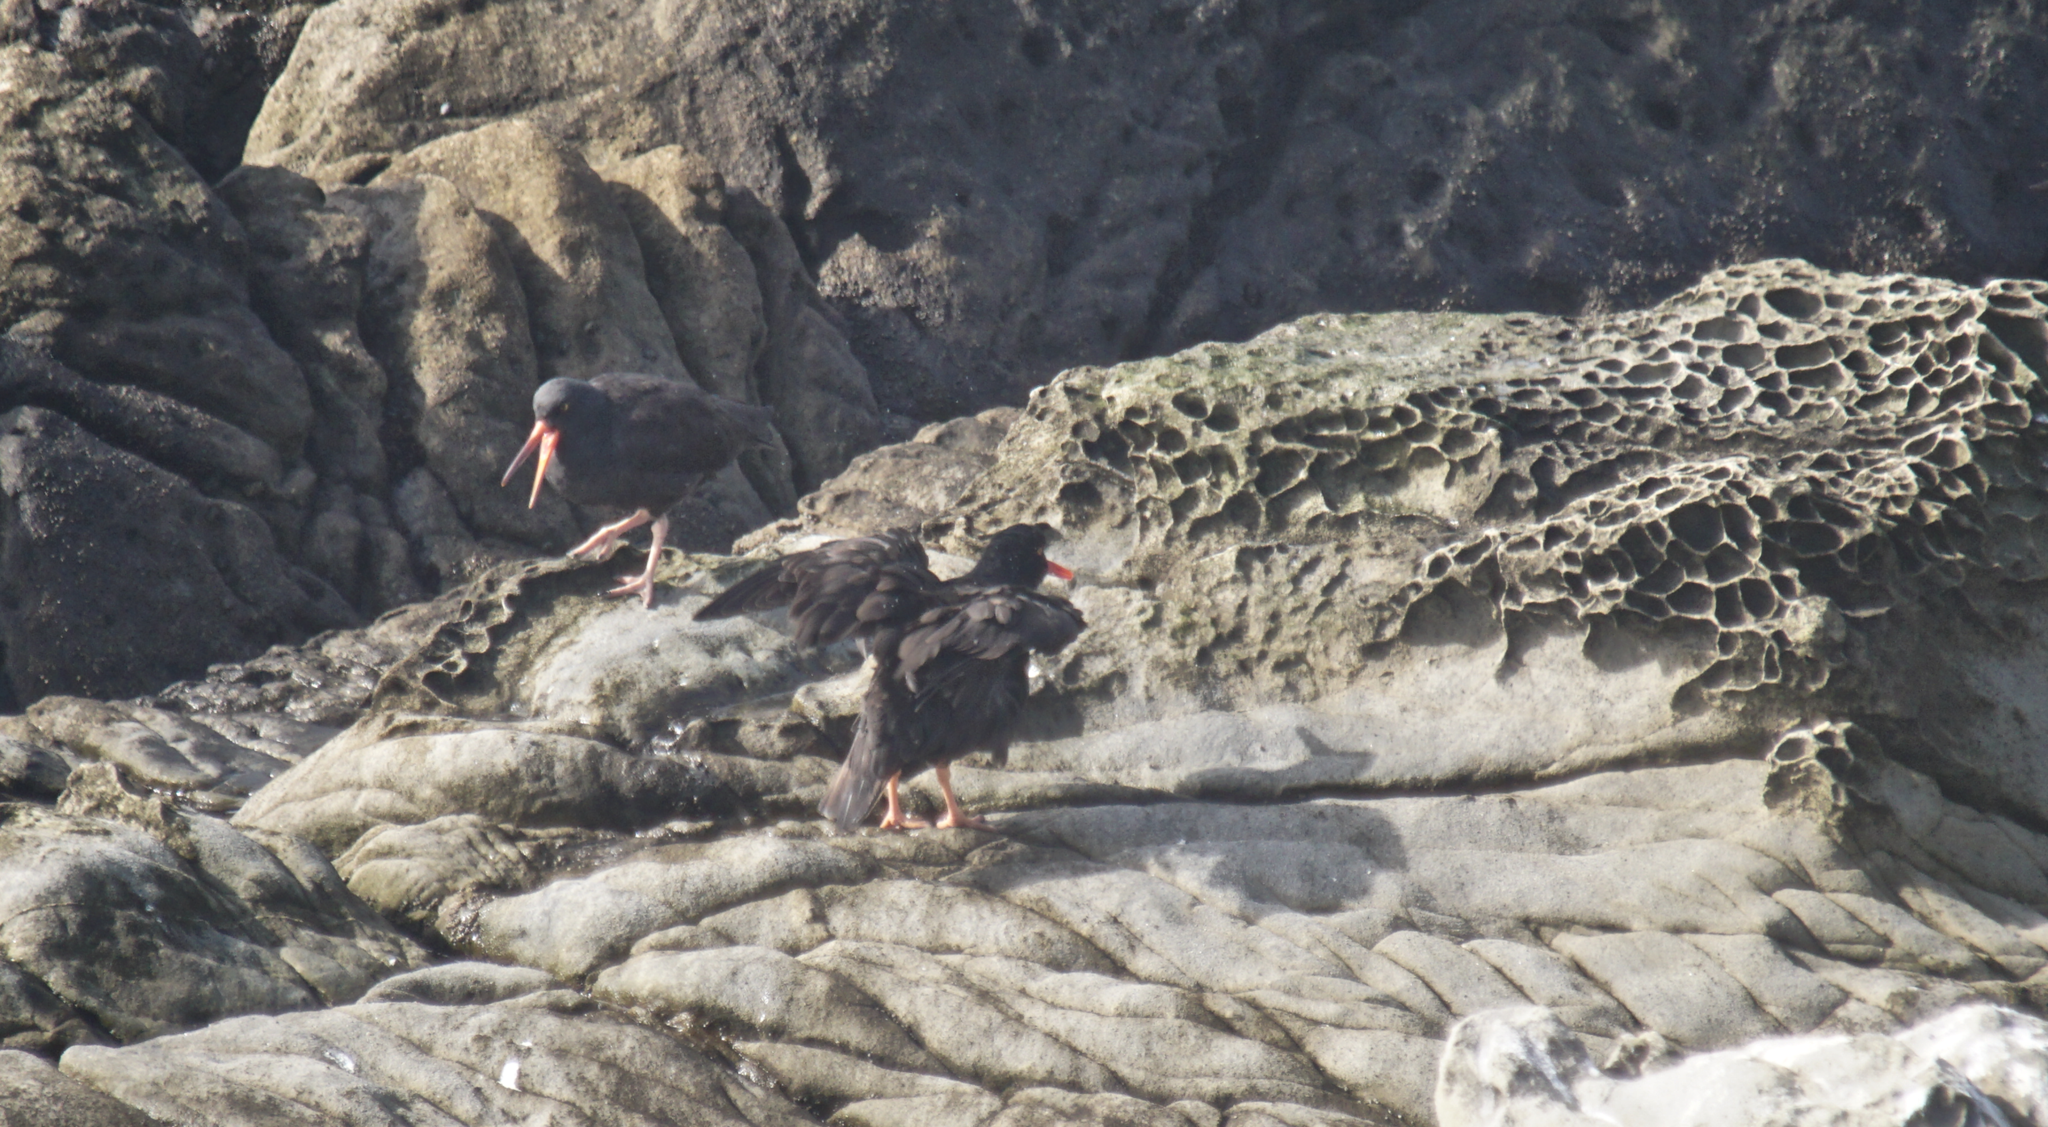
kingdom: Animalia
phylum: Chordata
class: Aves
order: Charadriiformes
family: Haematopodidae
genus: Haematopus
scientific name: Haematopus bachmani
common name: Black oystercatcher
